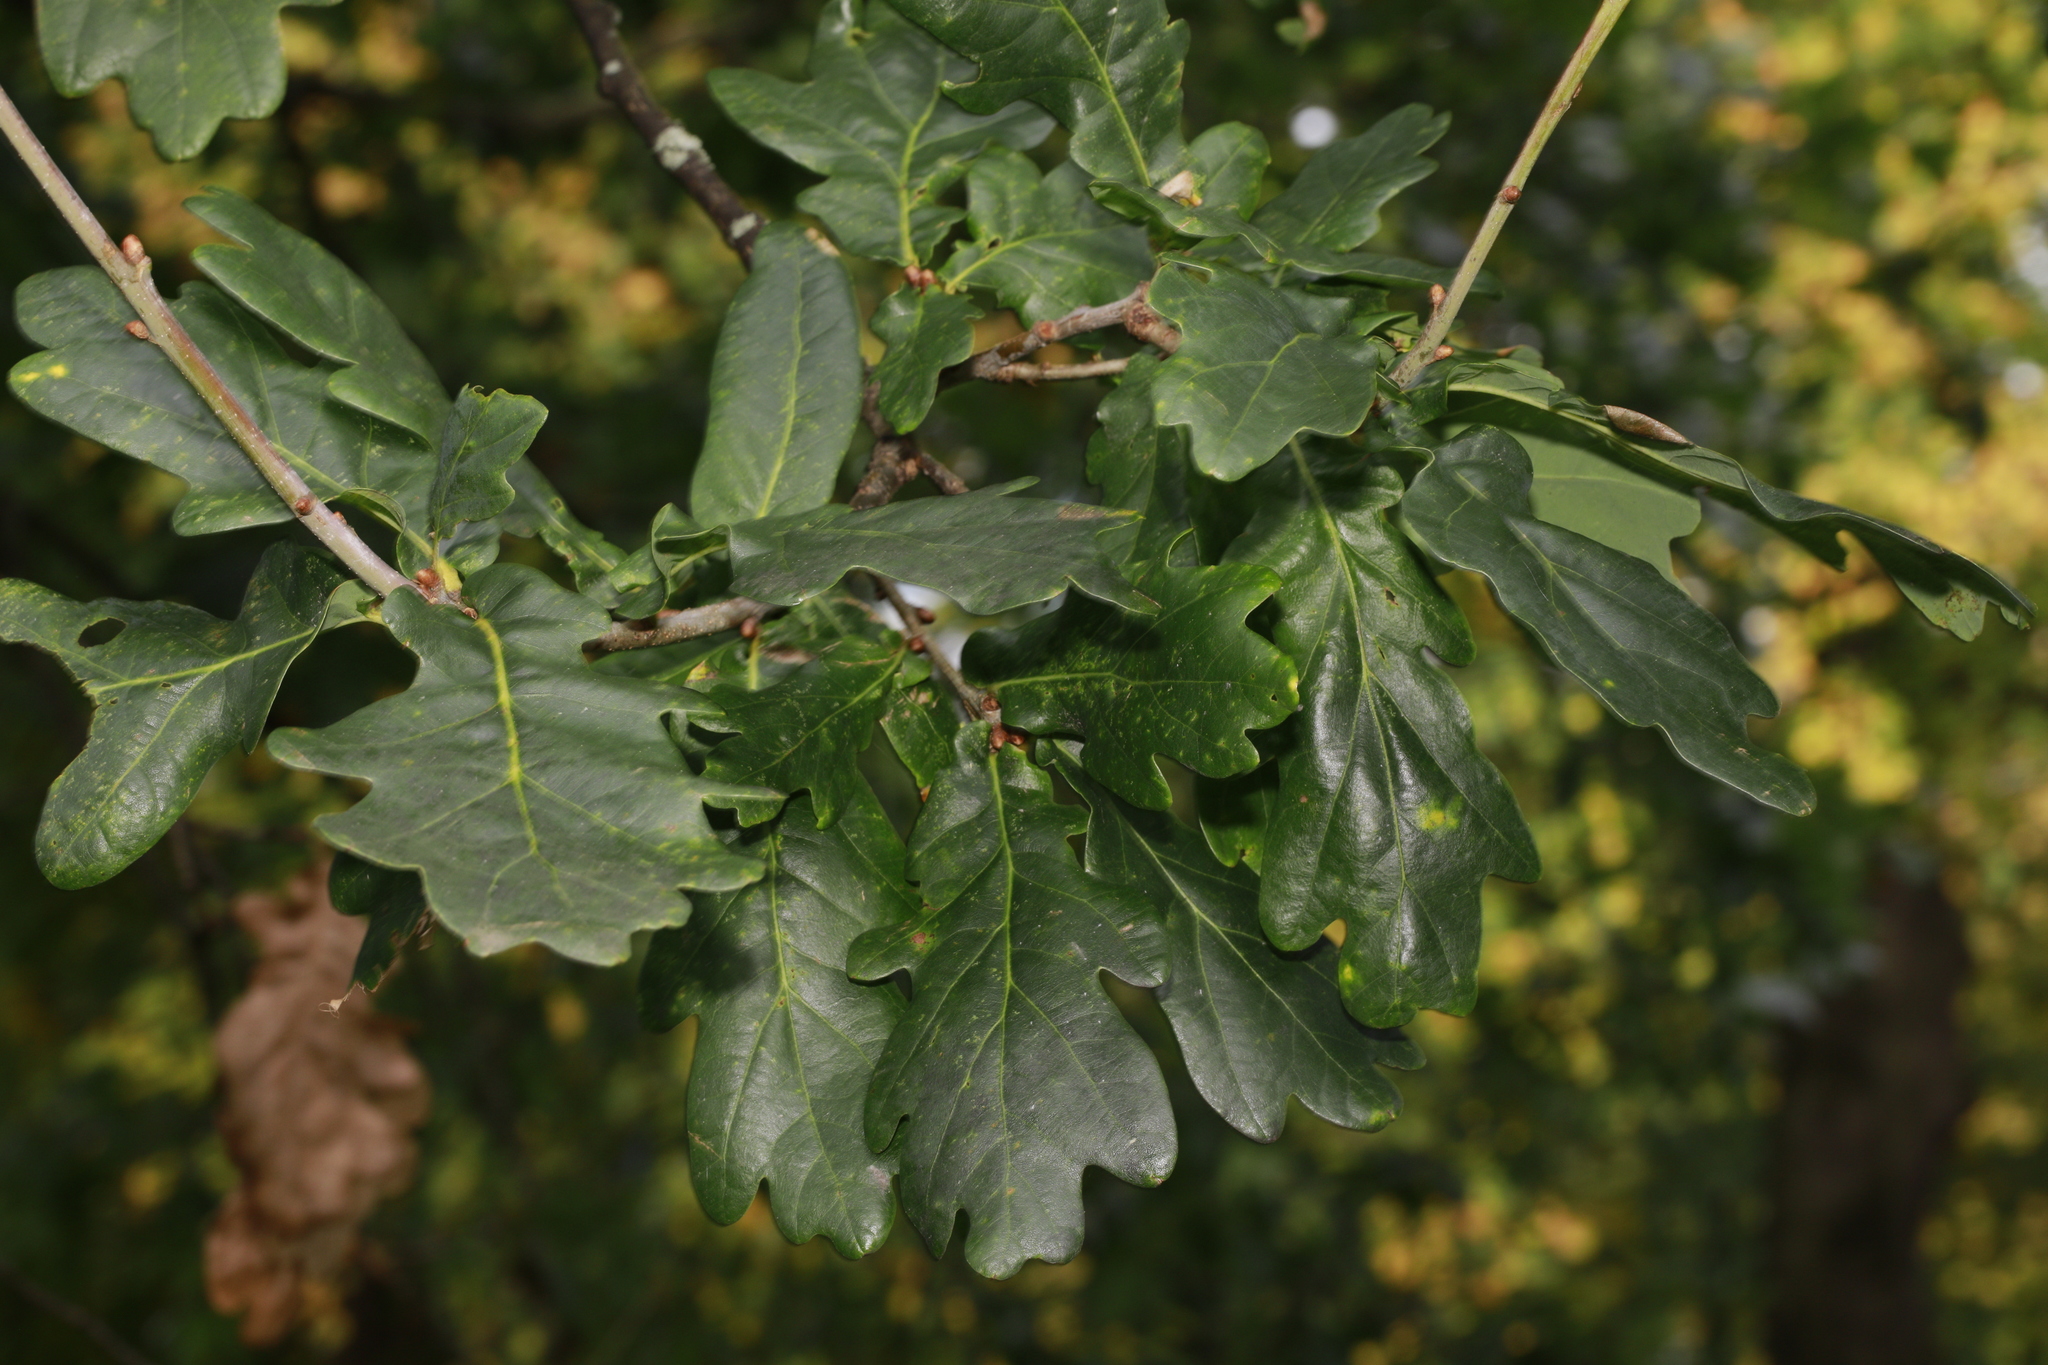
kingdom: Plantae
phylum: Tracheophyta
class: Magnoliopsida
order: Fagales
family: Fagaceae
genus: Quercus
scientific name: Quercus robur
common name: Pedunculate oak
